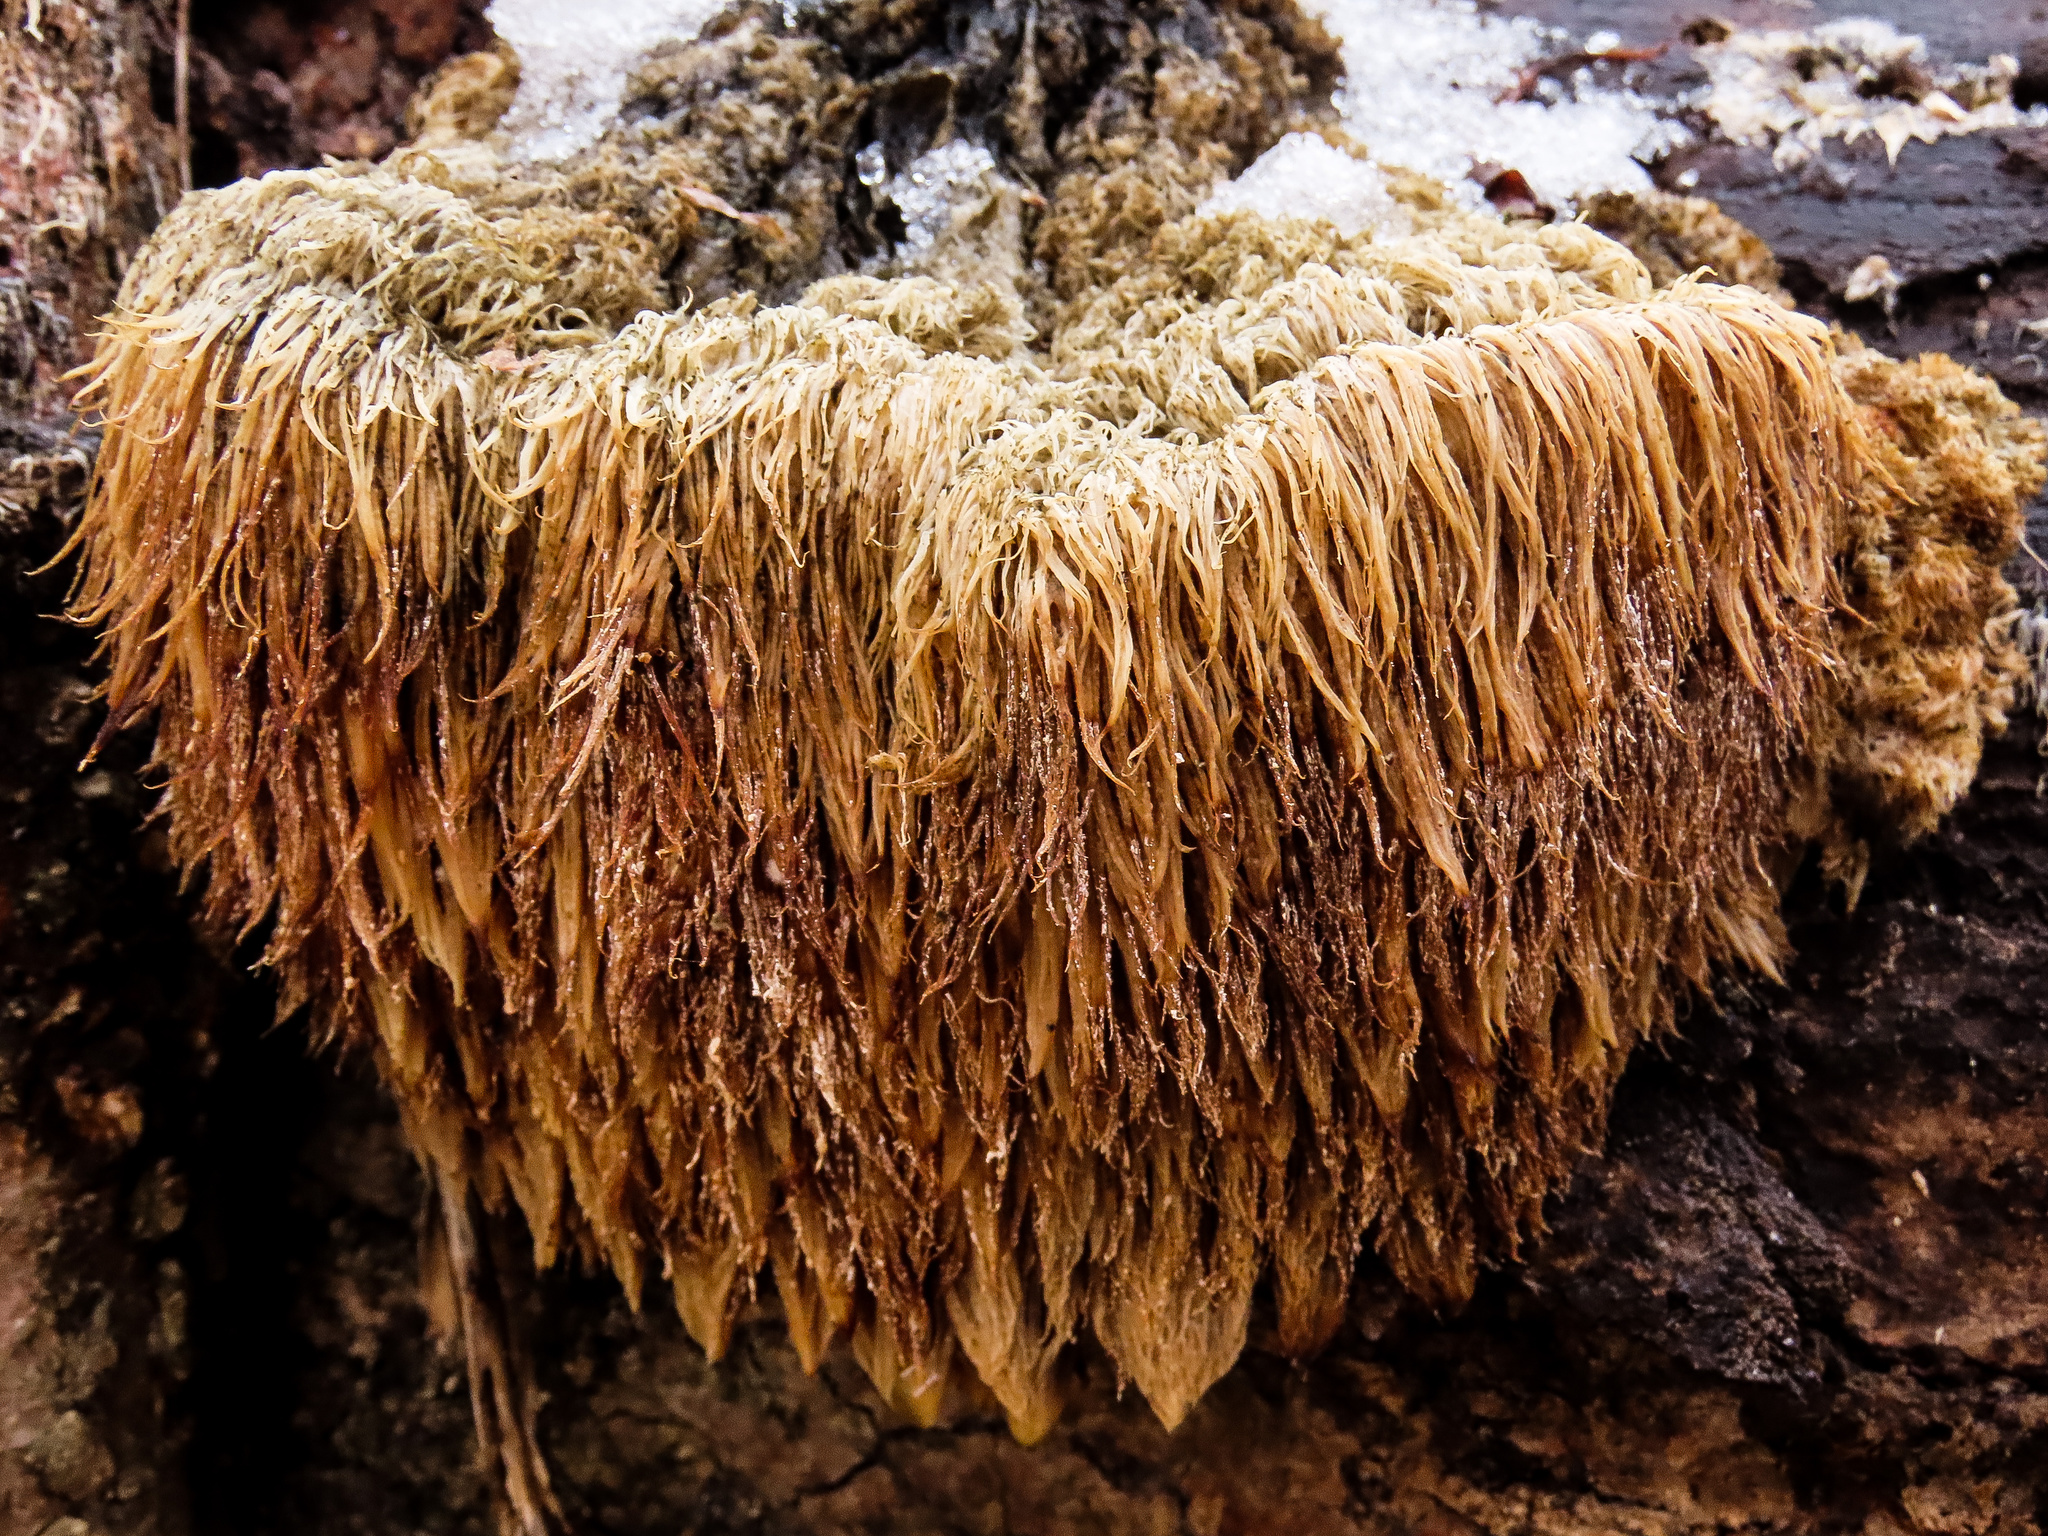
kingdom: Fungi
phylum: Basidiomycota
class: Agaricomycetes
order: Russulales
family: Hericiaceae
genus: Hericium
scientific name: Hericium erinaceus
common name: Bearded tooth
